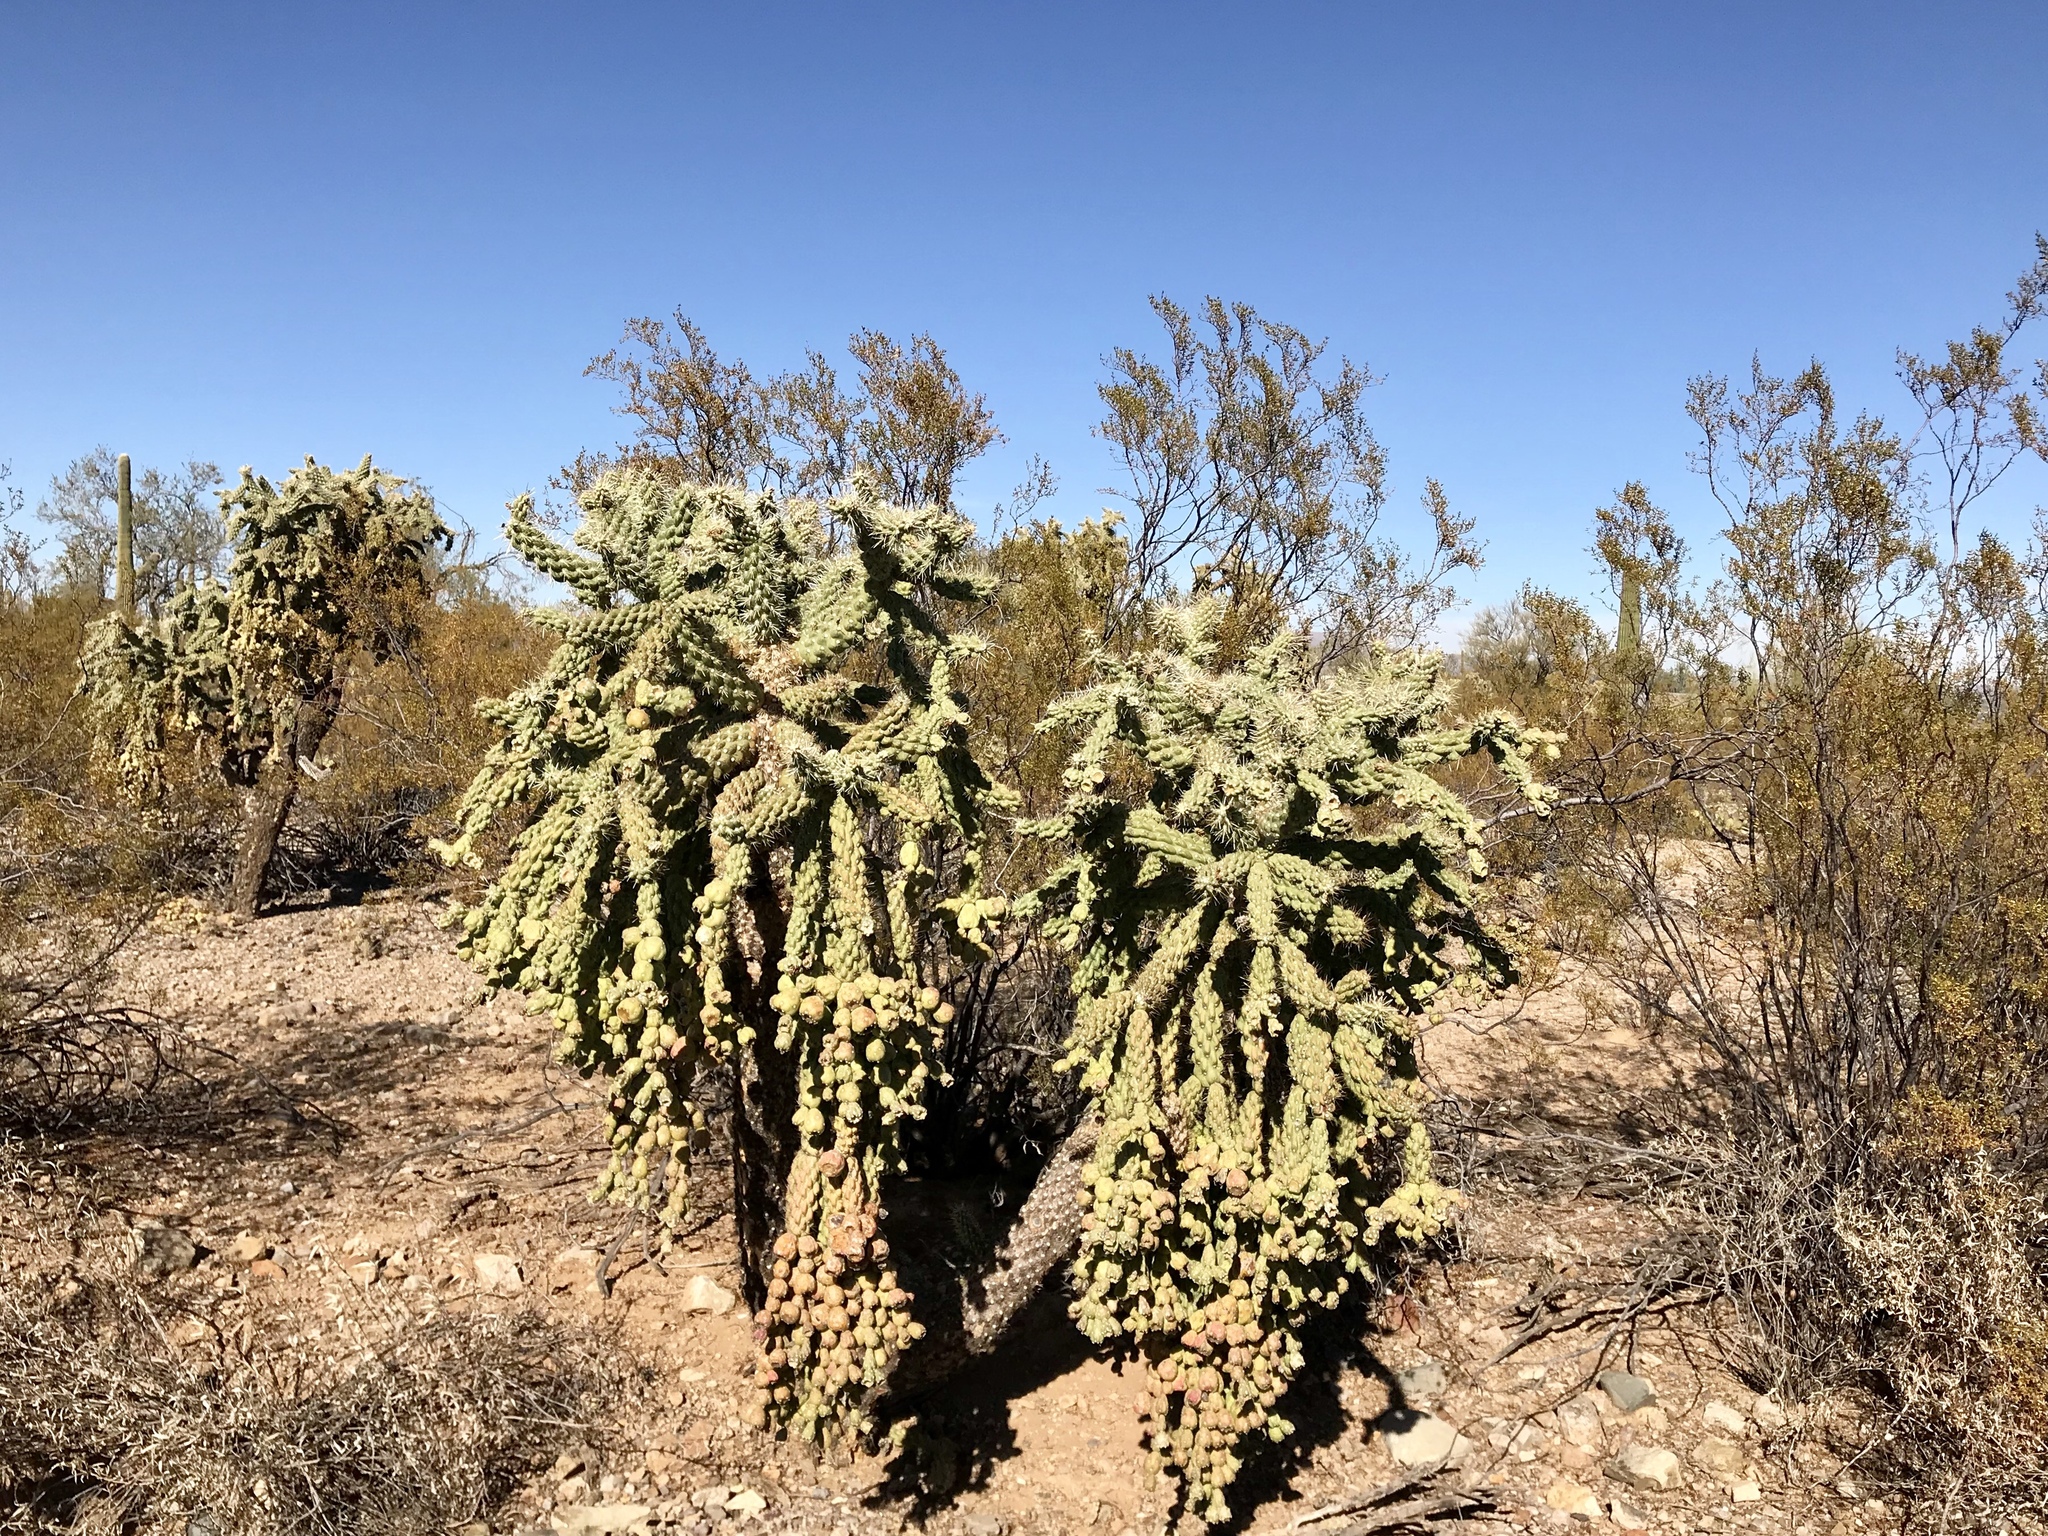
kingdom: Plantae
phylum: Tracheophyta
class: Magnoliopsida
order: Caryophyllales
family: Cactaceae
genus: Cylindropuntia
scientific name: Cylindropuntia fulgida
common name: Jumping cholla
